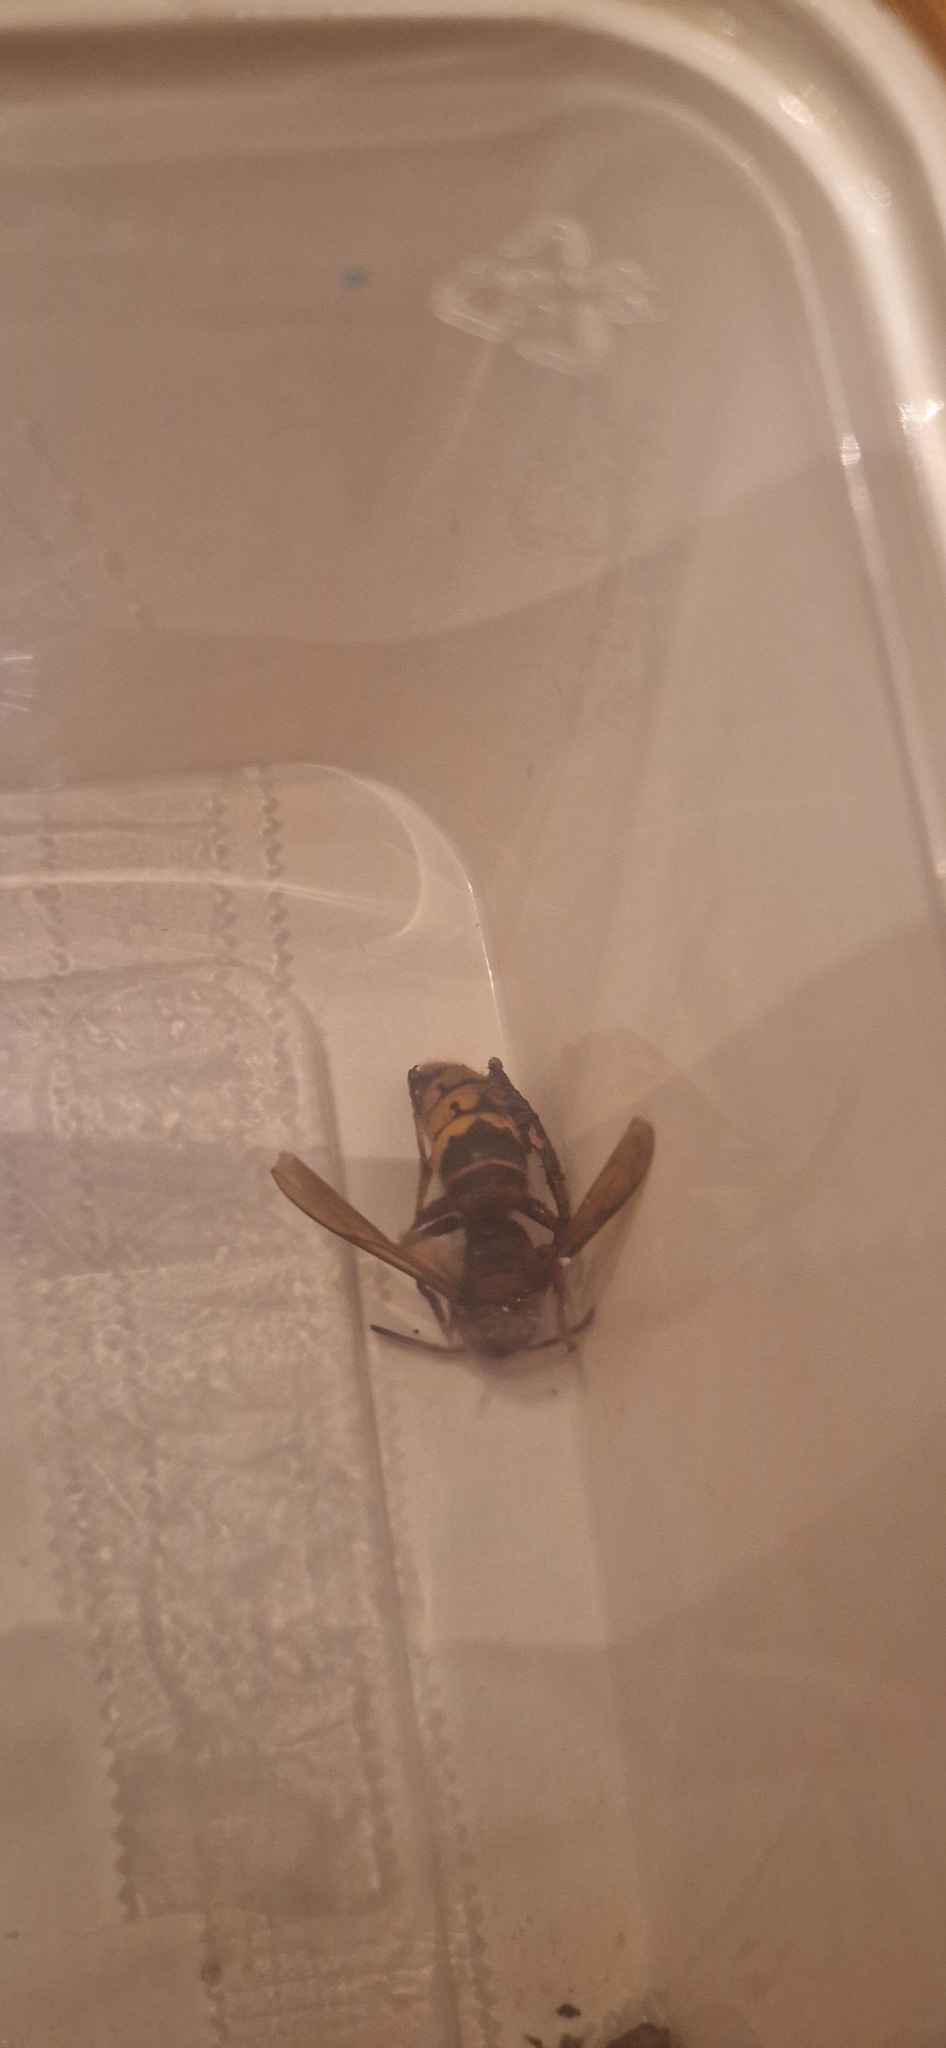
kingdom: Animalia
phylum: Arthropoda
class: Insecta
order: Hymenoptera
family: Vespidae
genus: Vespa
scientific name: Vespa crabro
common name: Hornet
